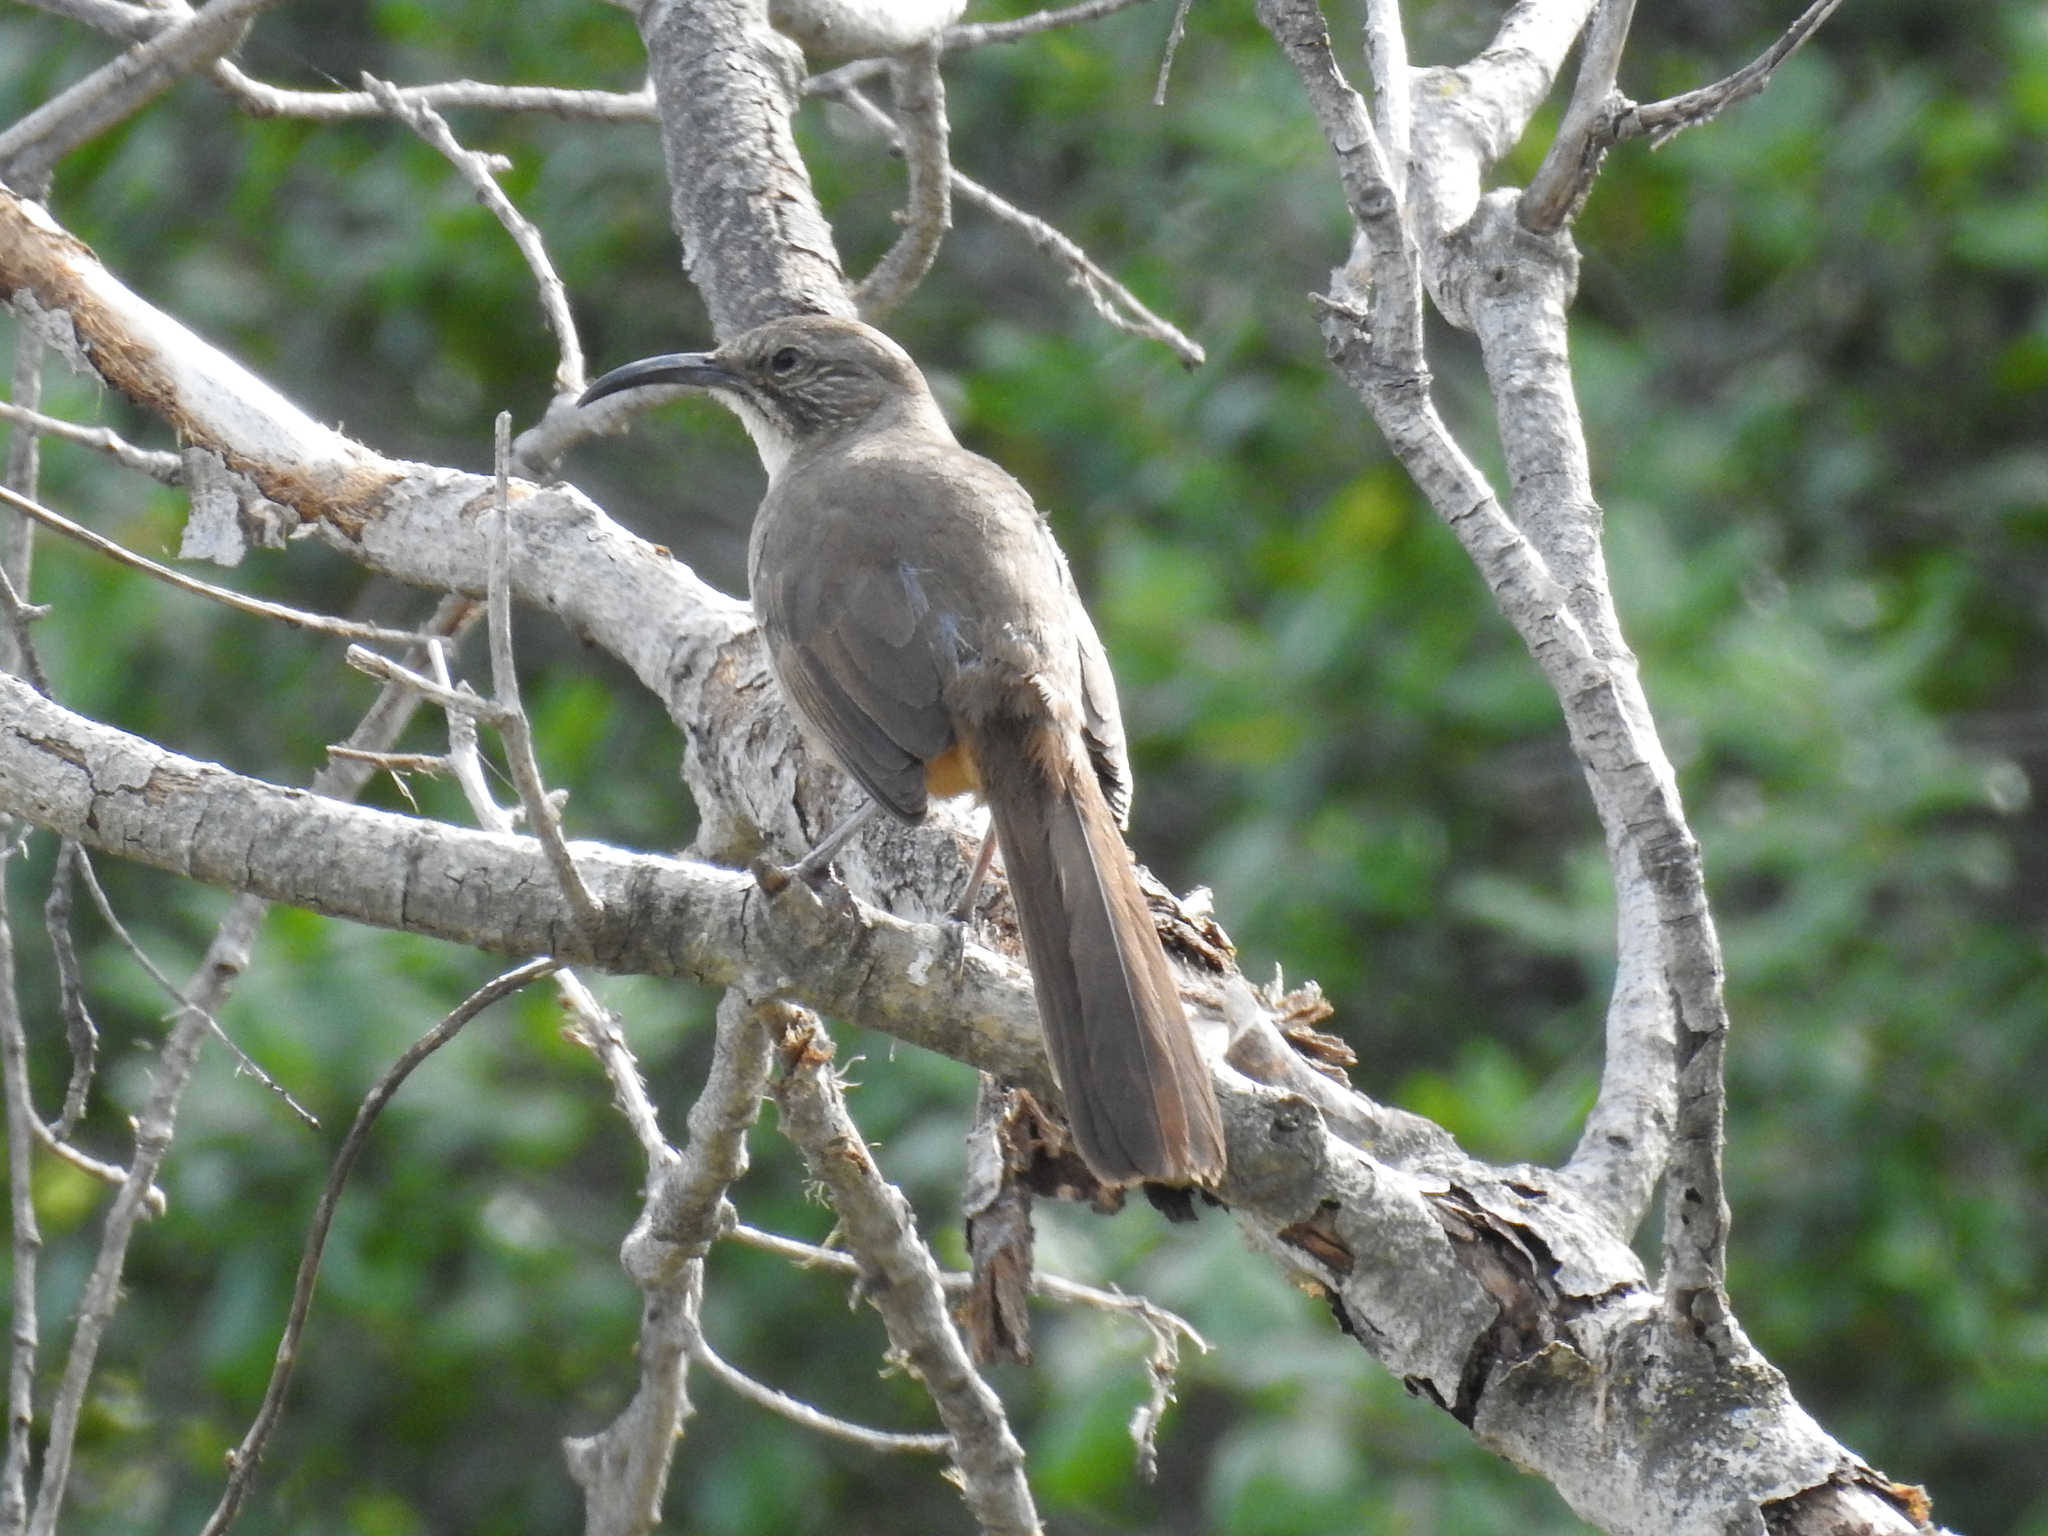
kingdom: Animalia
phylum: Chordata
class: Aves
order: Passeriformes
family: Mimidae
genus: Toxostoma
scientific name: Toxostoma redivivum
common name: California thrasher
